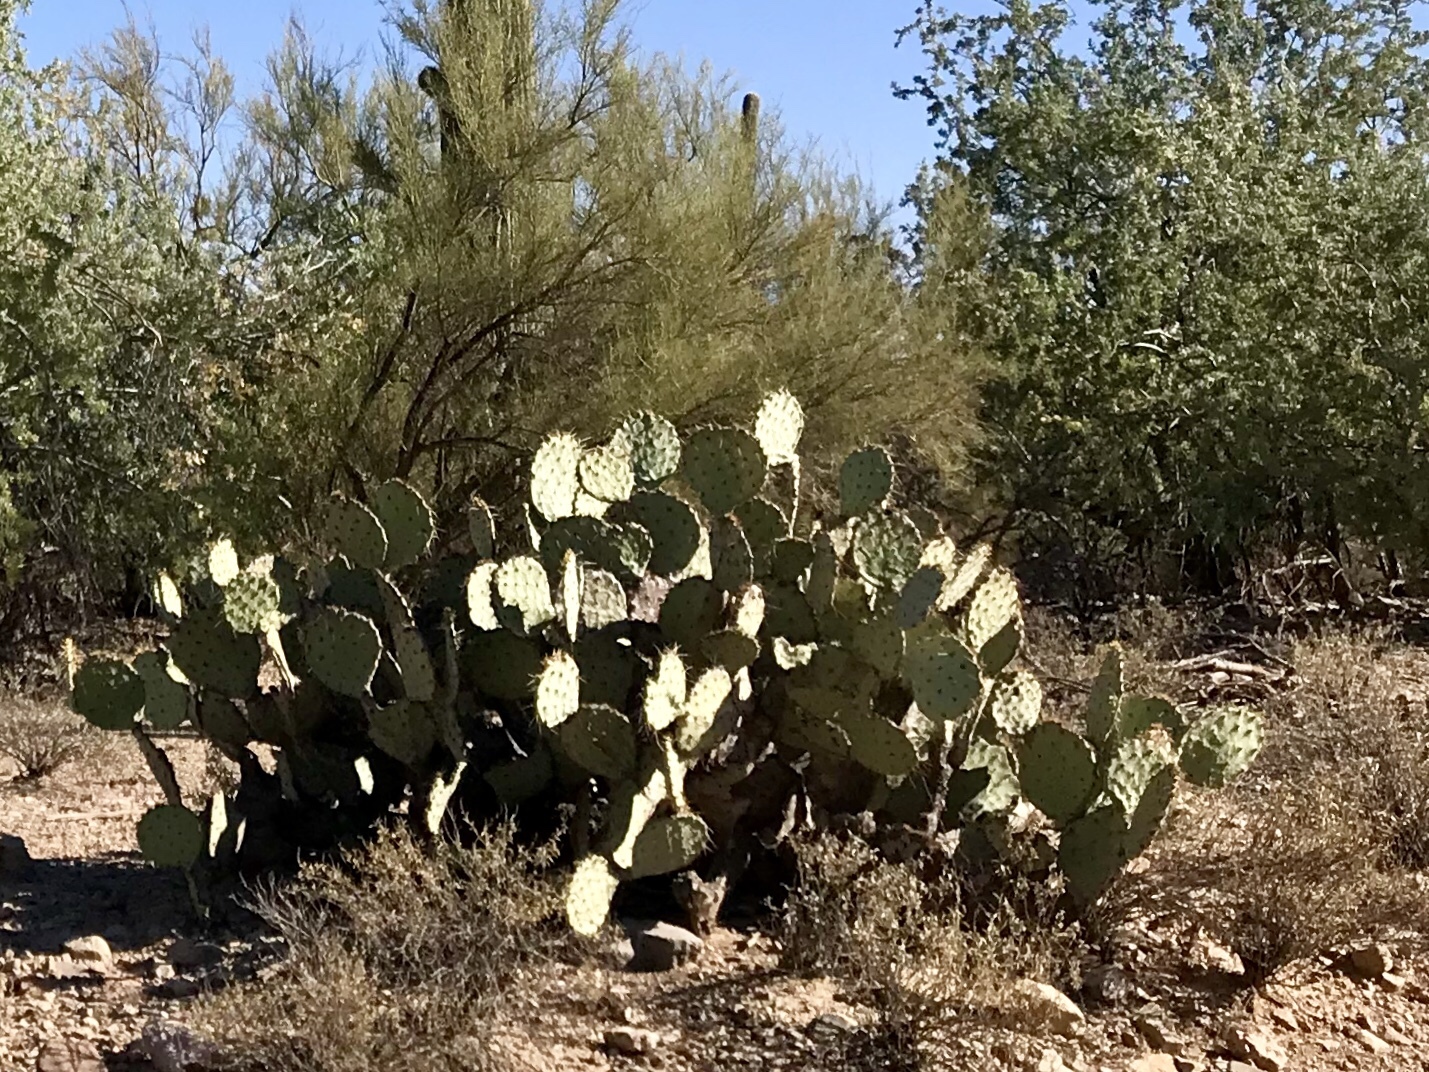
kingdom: Plantae
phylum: Tracheophyta
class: Magnoliopsida
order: Caryophyllales
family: Cactaceae
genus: Opuntia
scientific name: Opuntia engelmannii
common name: Cactus-apple
